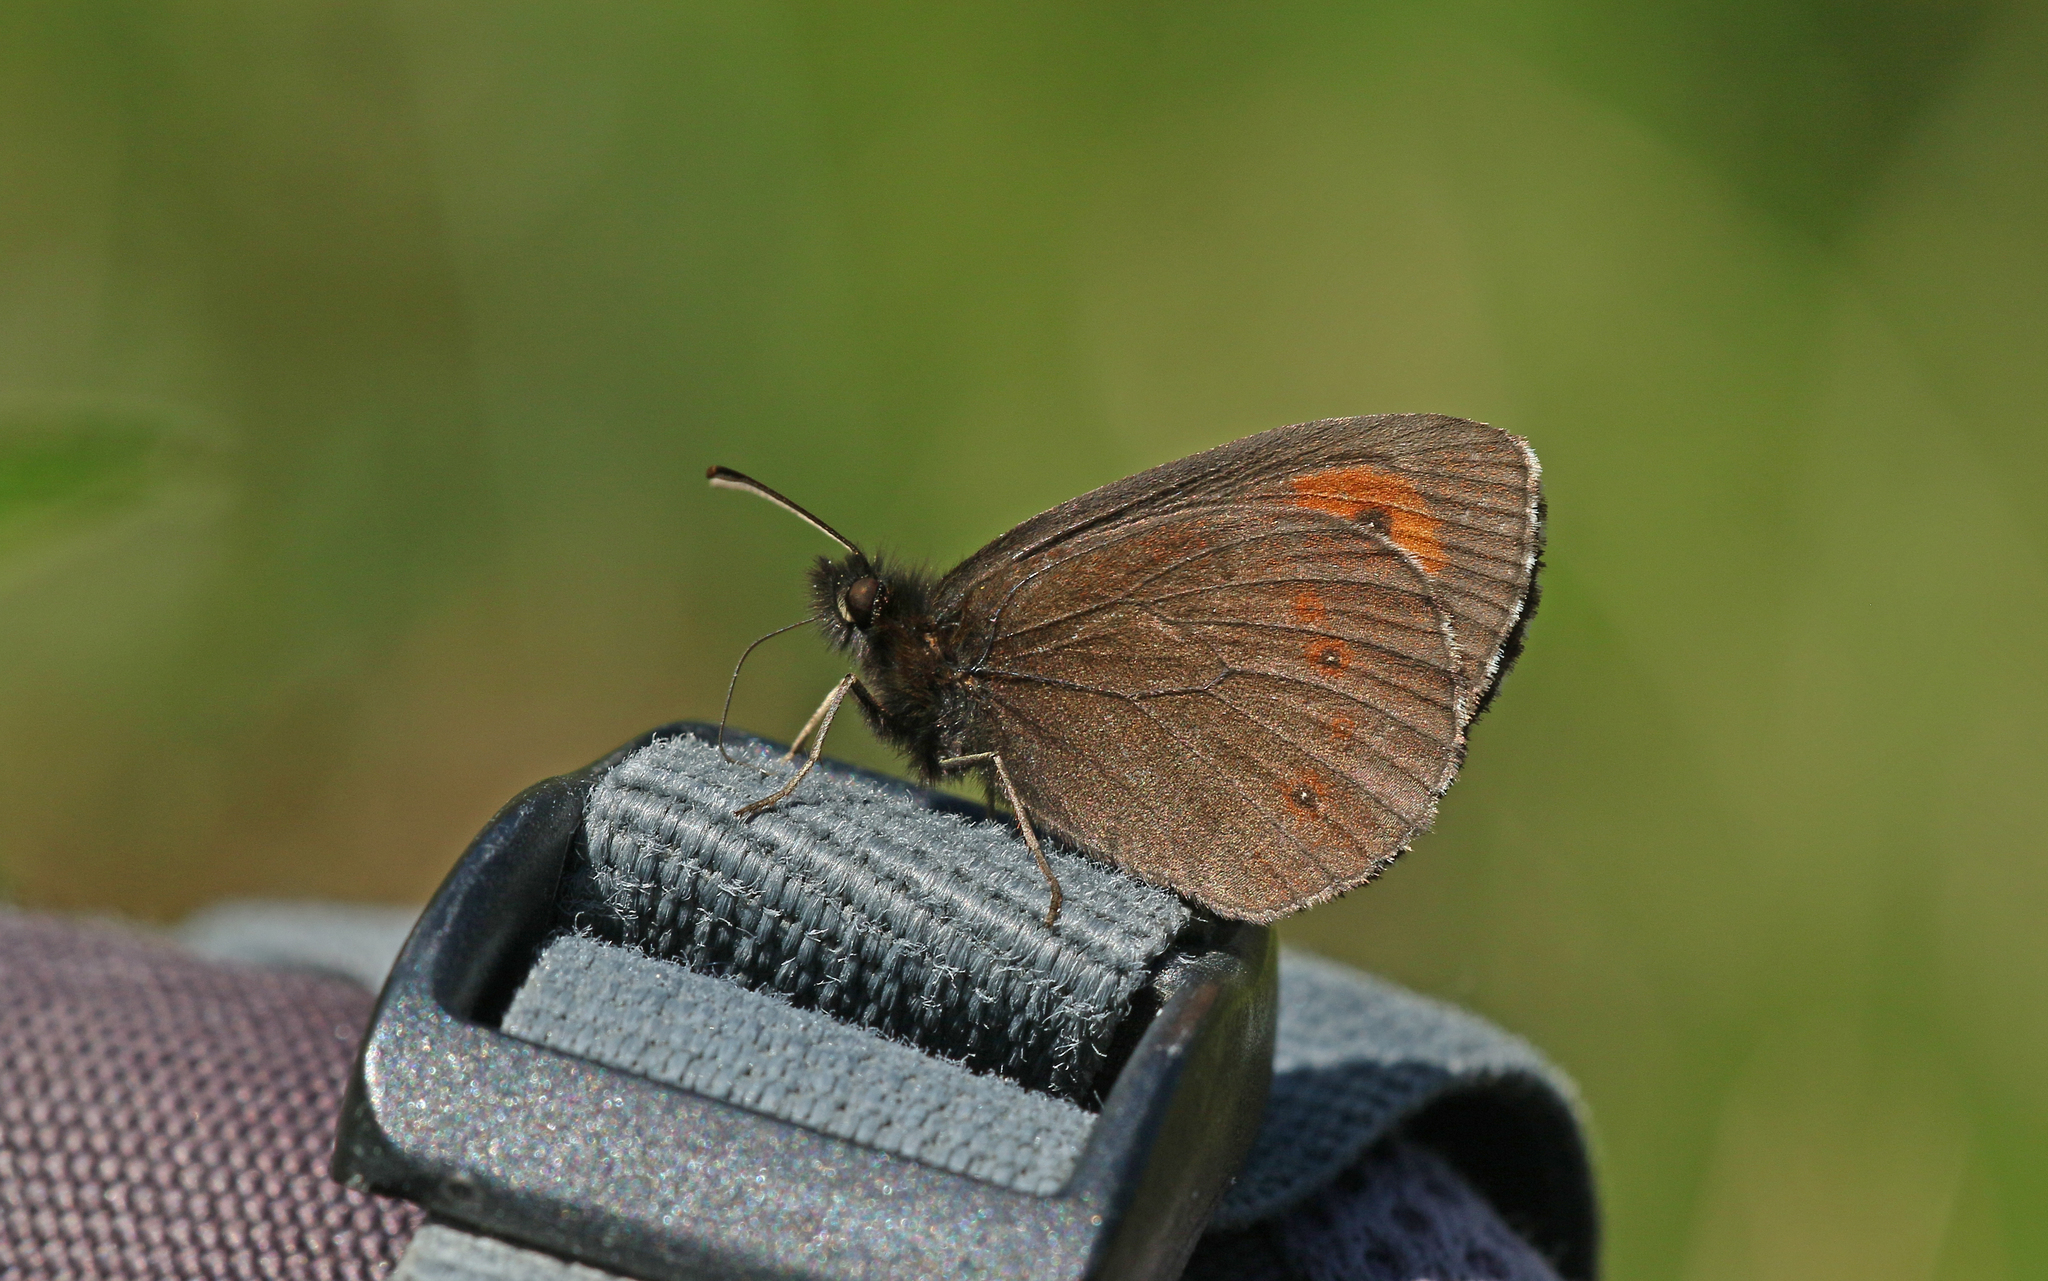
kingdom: Animalia
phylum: Arthropoda
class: Insecta
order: Lepidoptera
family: Nymphalidae
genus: Erebia
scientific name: Erebia euryale
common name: Large ringlet
